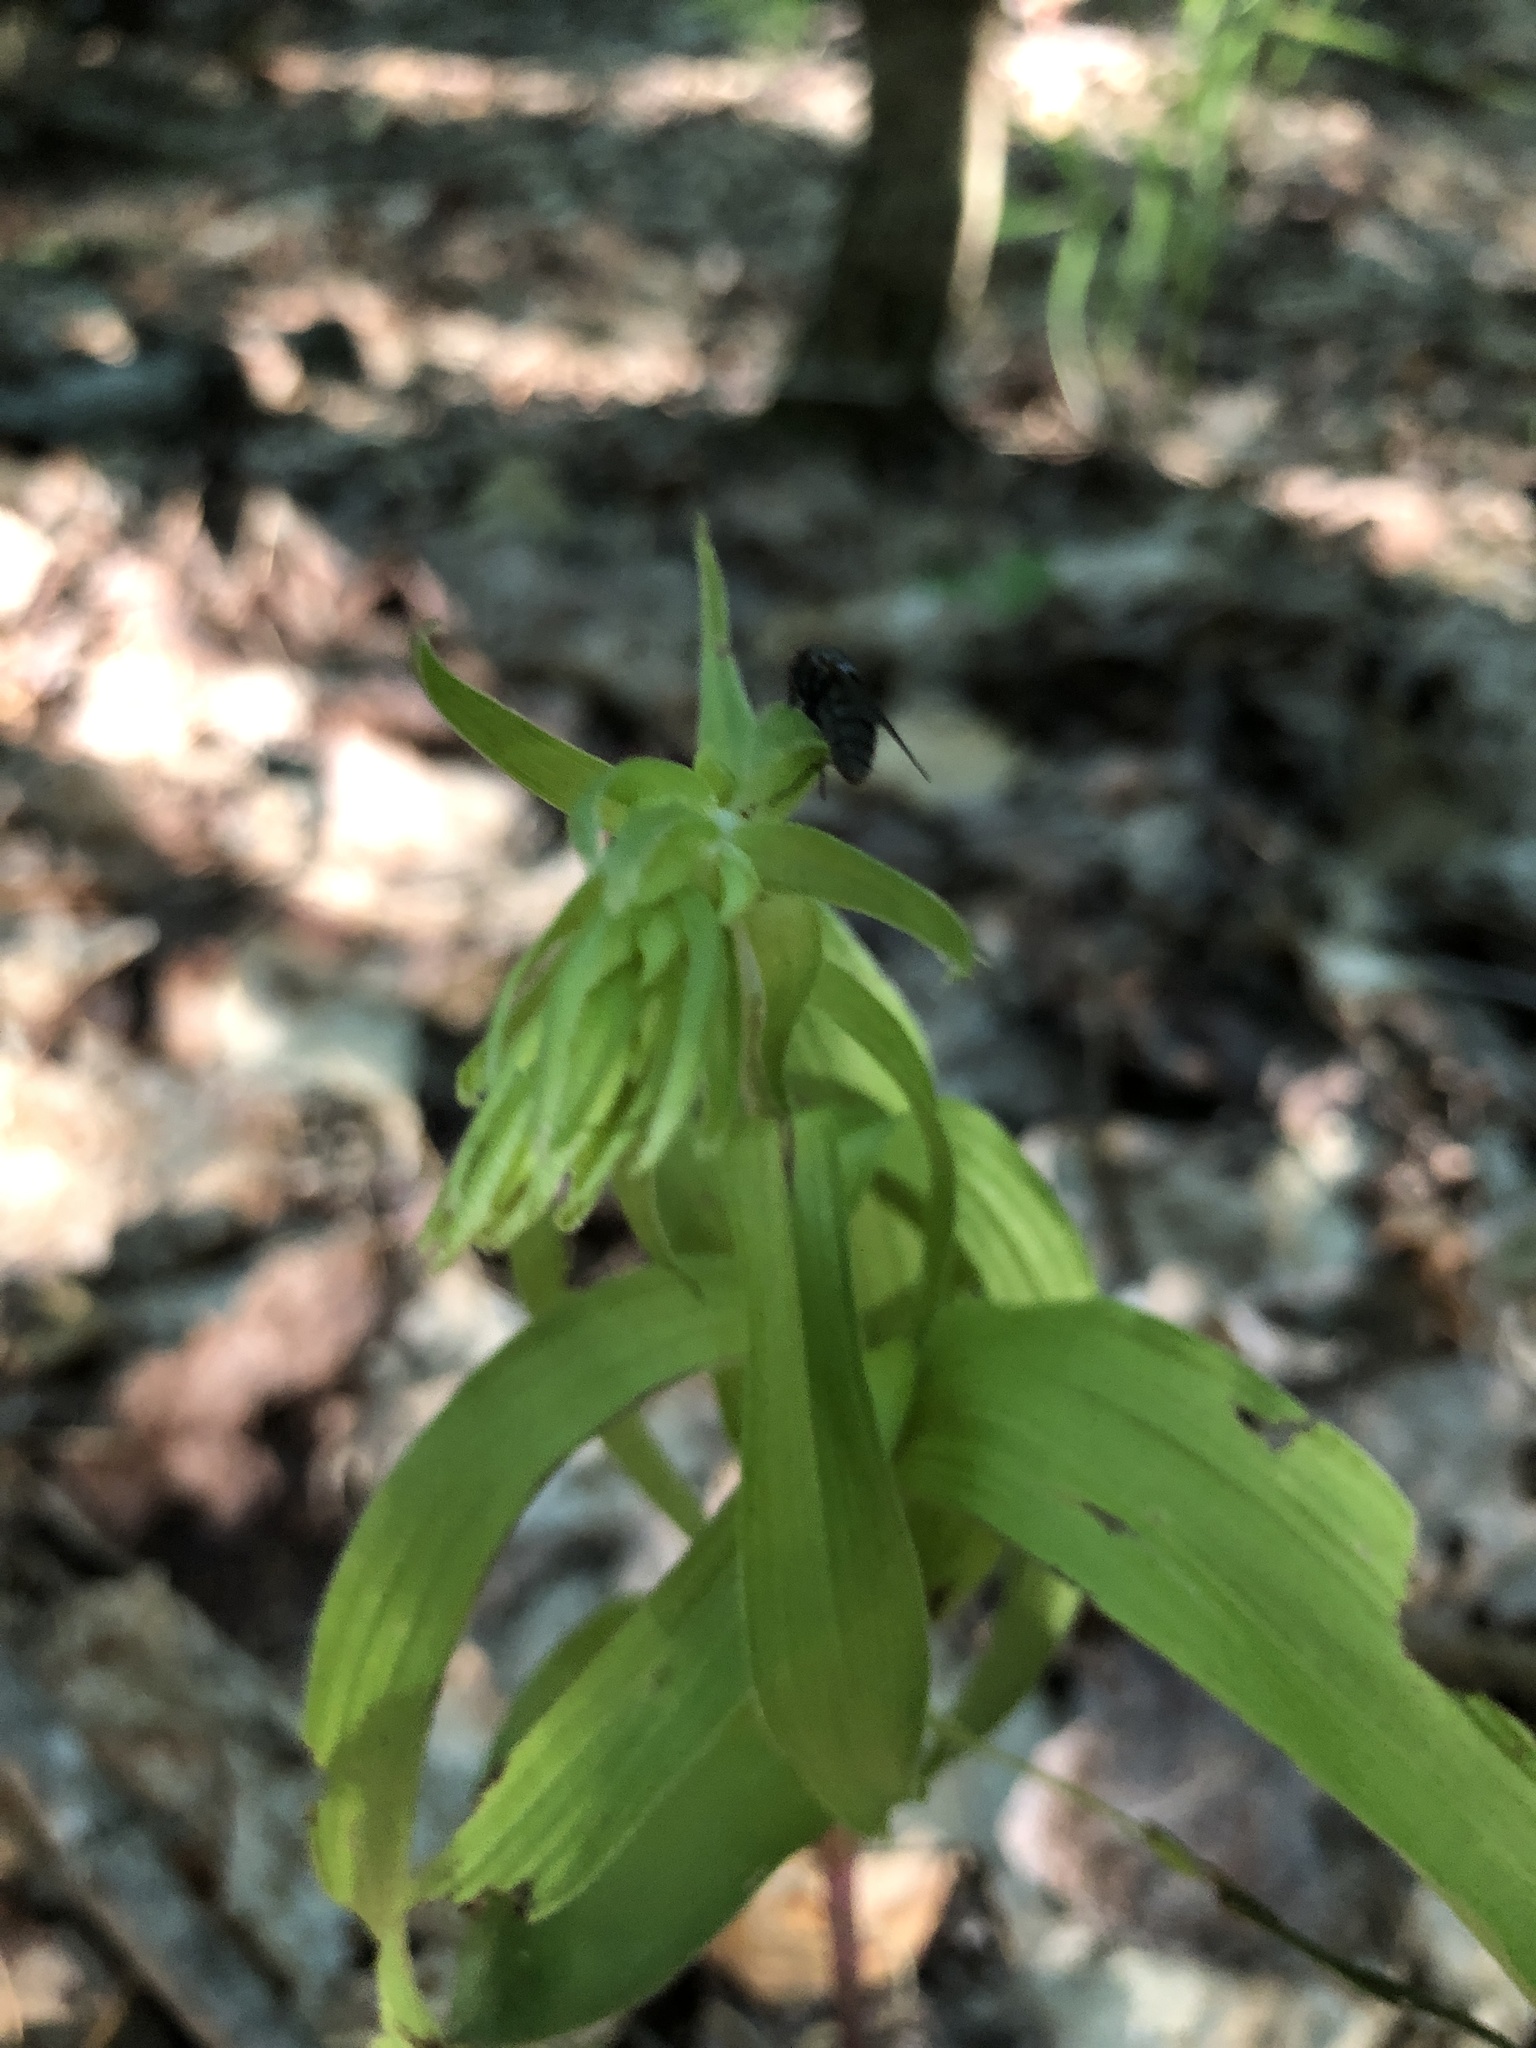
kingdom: Plantae
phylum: Tracheophyta
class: Liliopsida
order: Asparagales
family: Orchidaceae
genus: Epipactis
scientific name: Epipactis helleborine
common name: Broad-leaved helleborine
